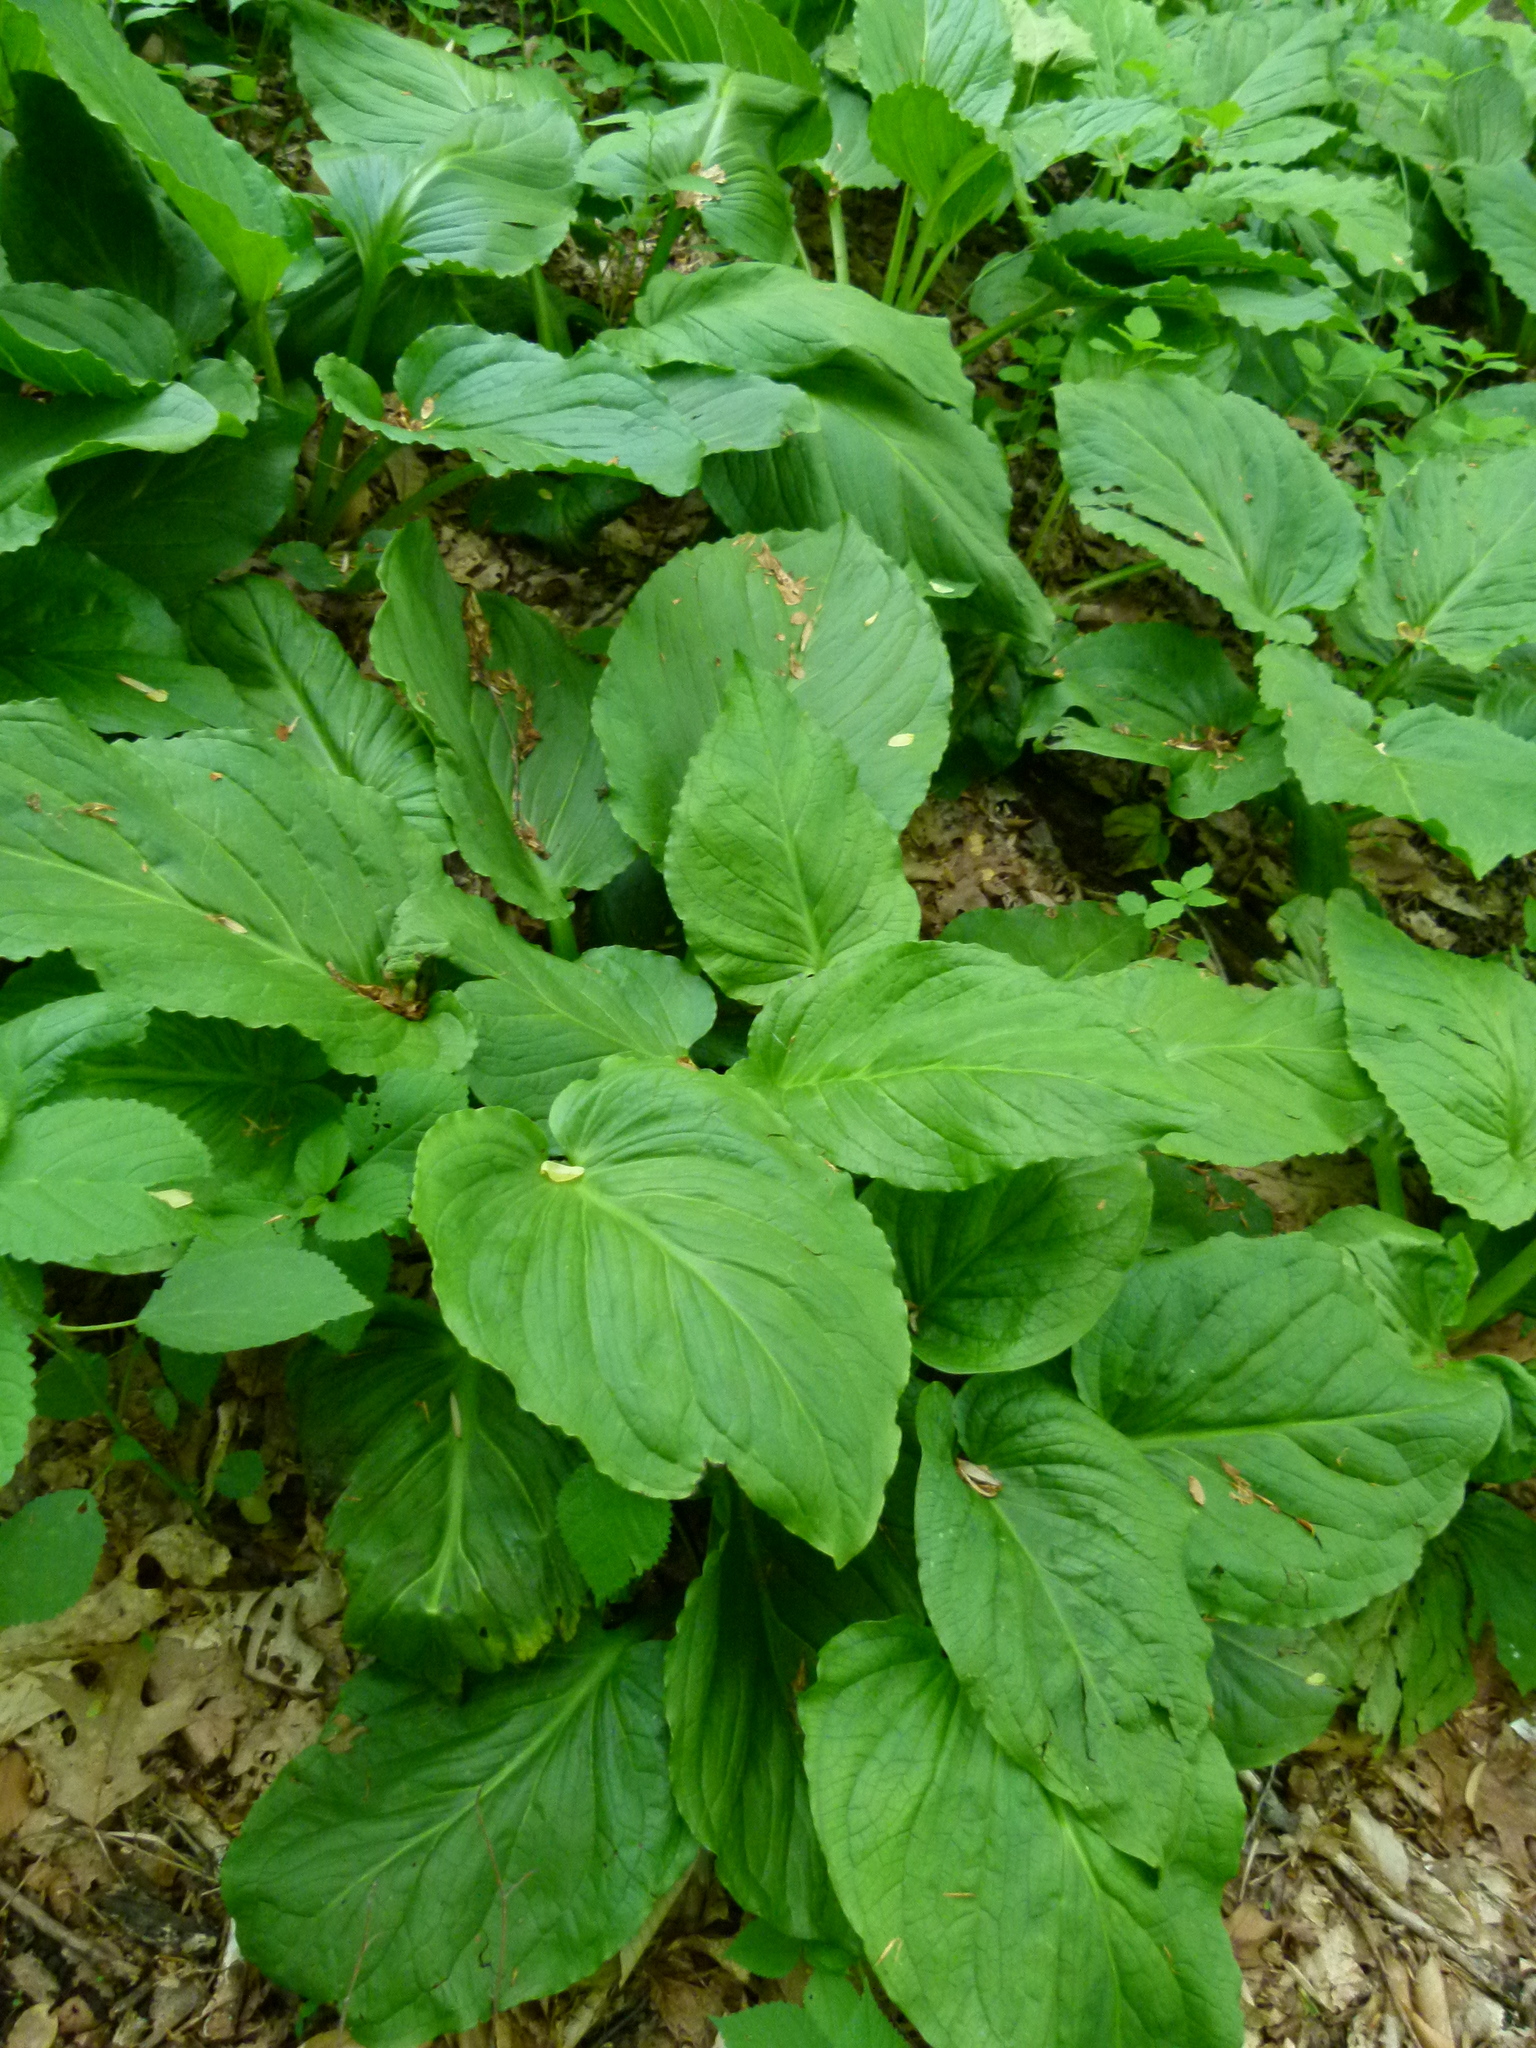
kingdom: Plantae
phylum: Tracheophyta
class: Liliopsida
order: Alismatales
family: Araceae
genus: Symplocarpus
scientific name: Symplocarpus foetidus
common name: Eastern skunk cabbage
